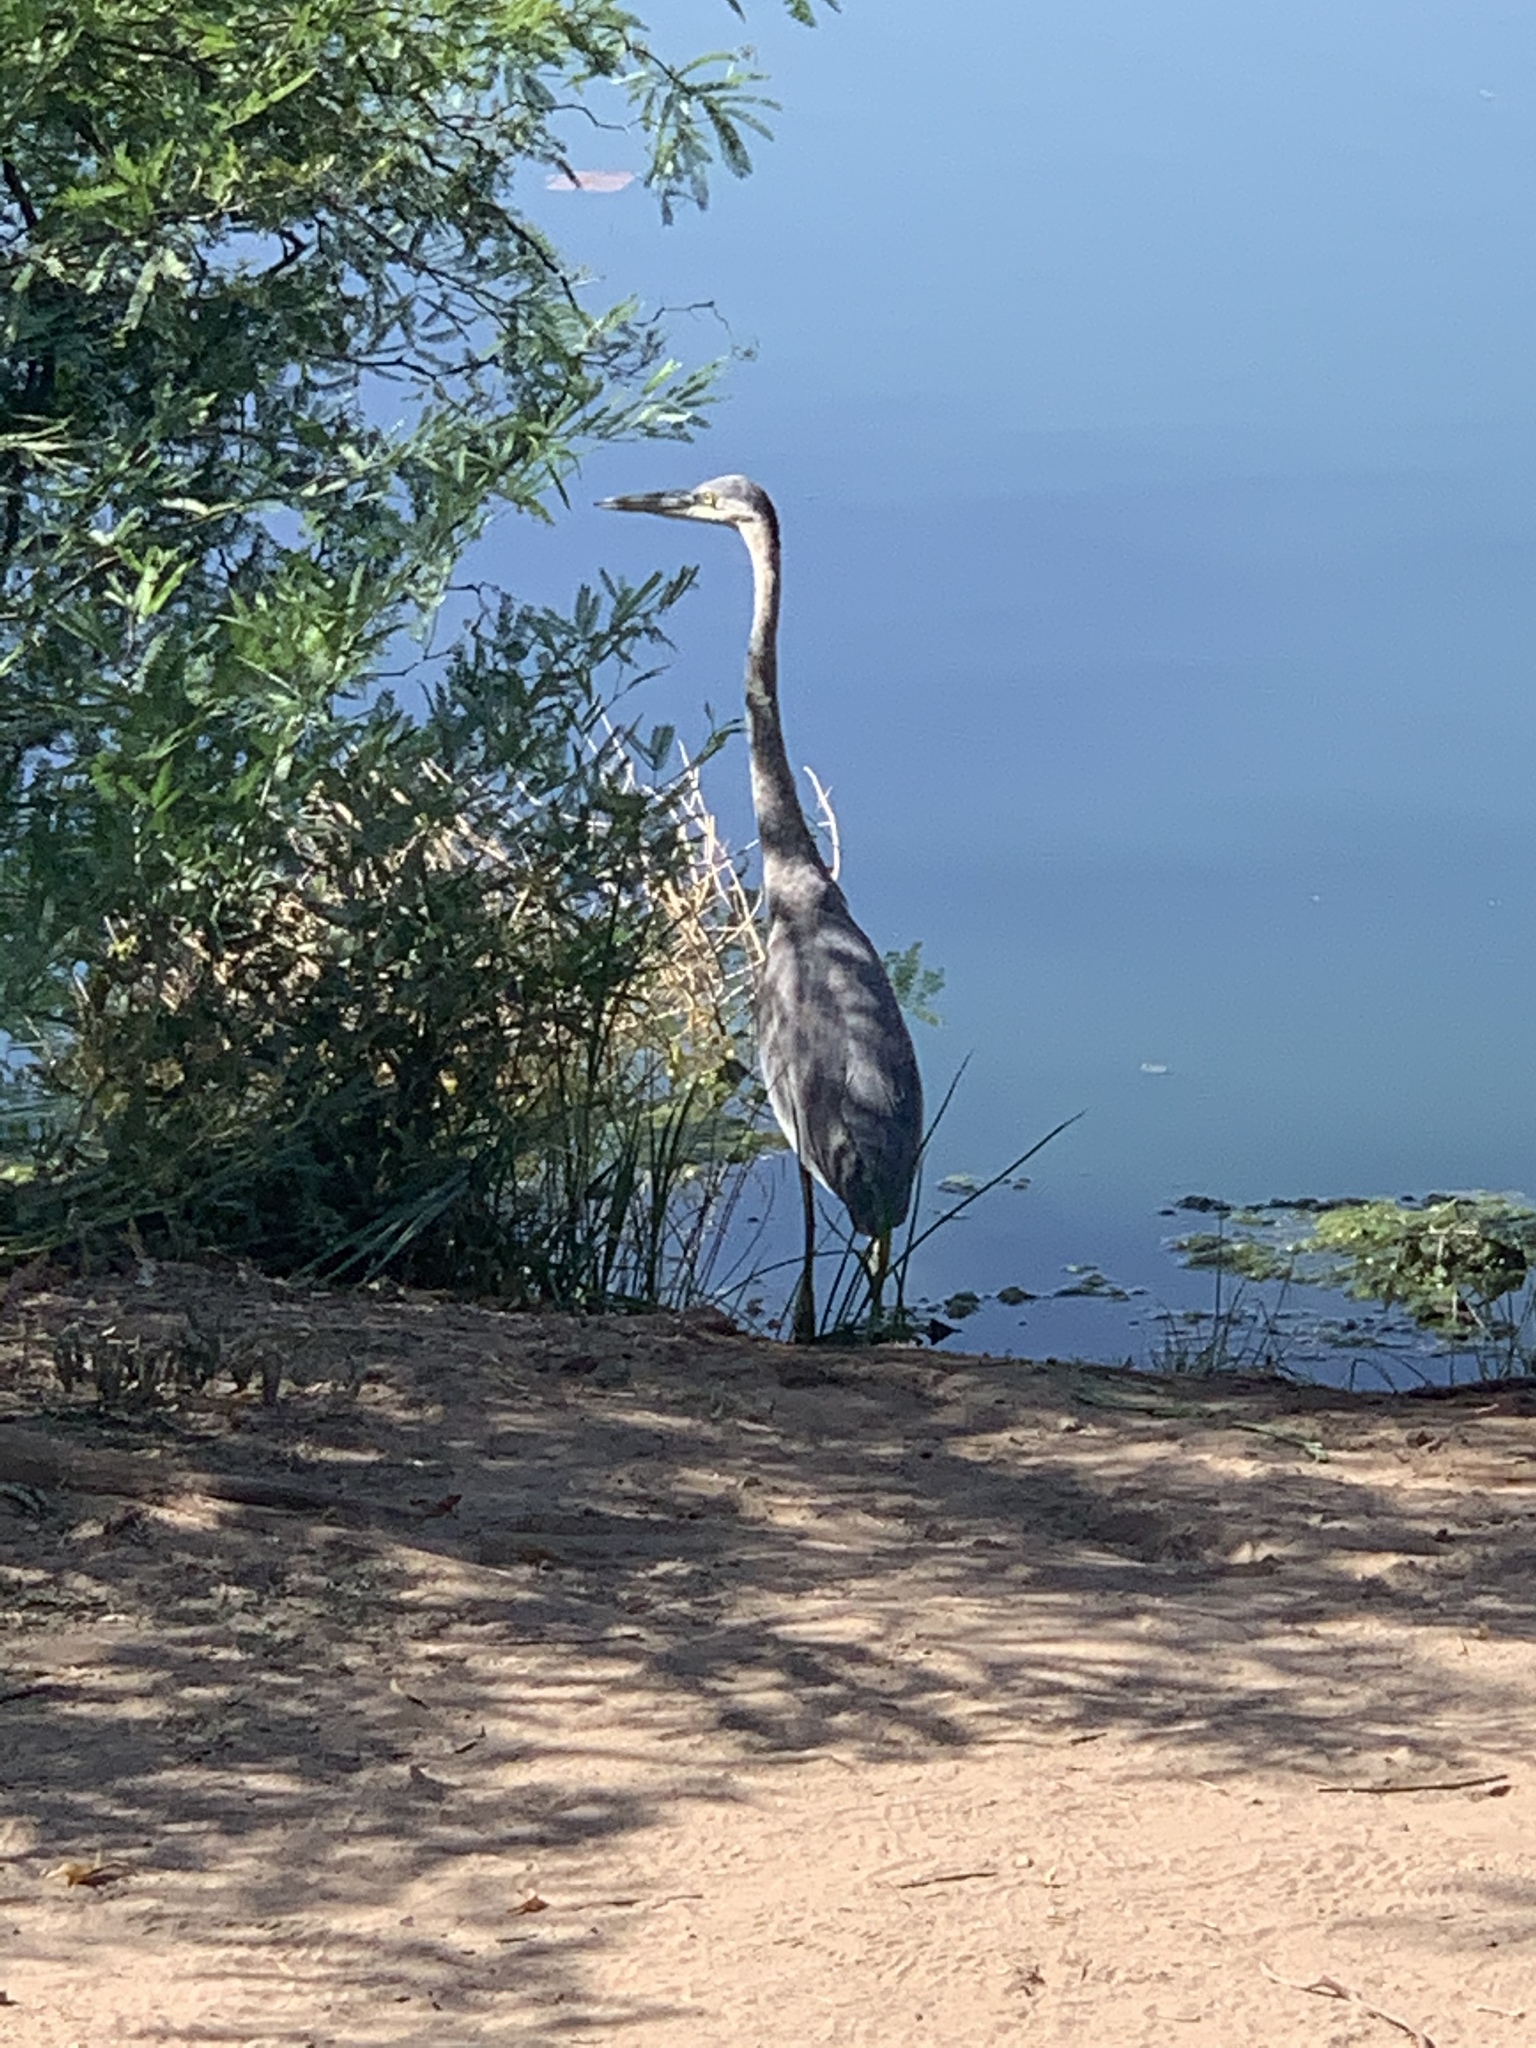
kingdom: Animalia
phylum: Chordata
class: Aves
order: Pelecaniformes
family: Ardeidae
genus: Ardea
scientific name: Ardea herodias
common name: Great blue heron
